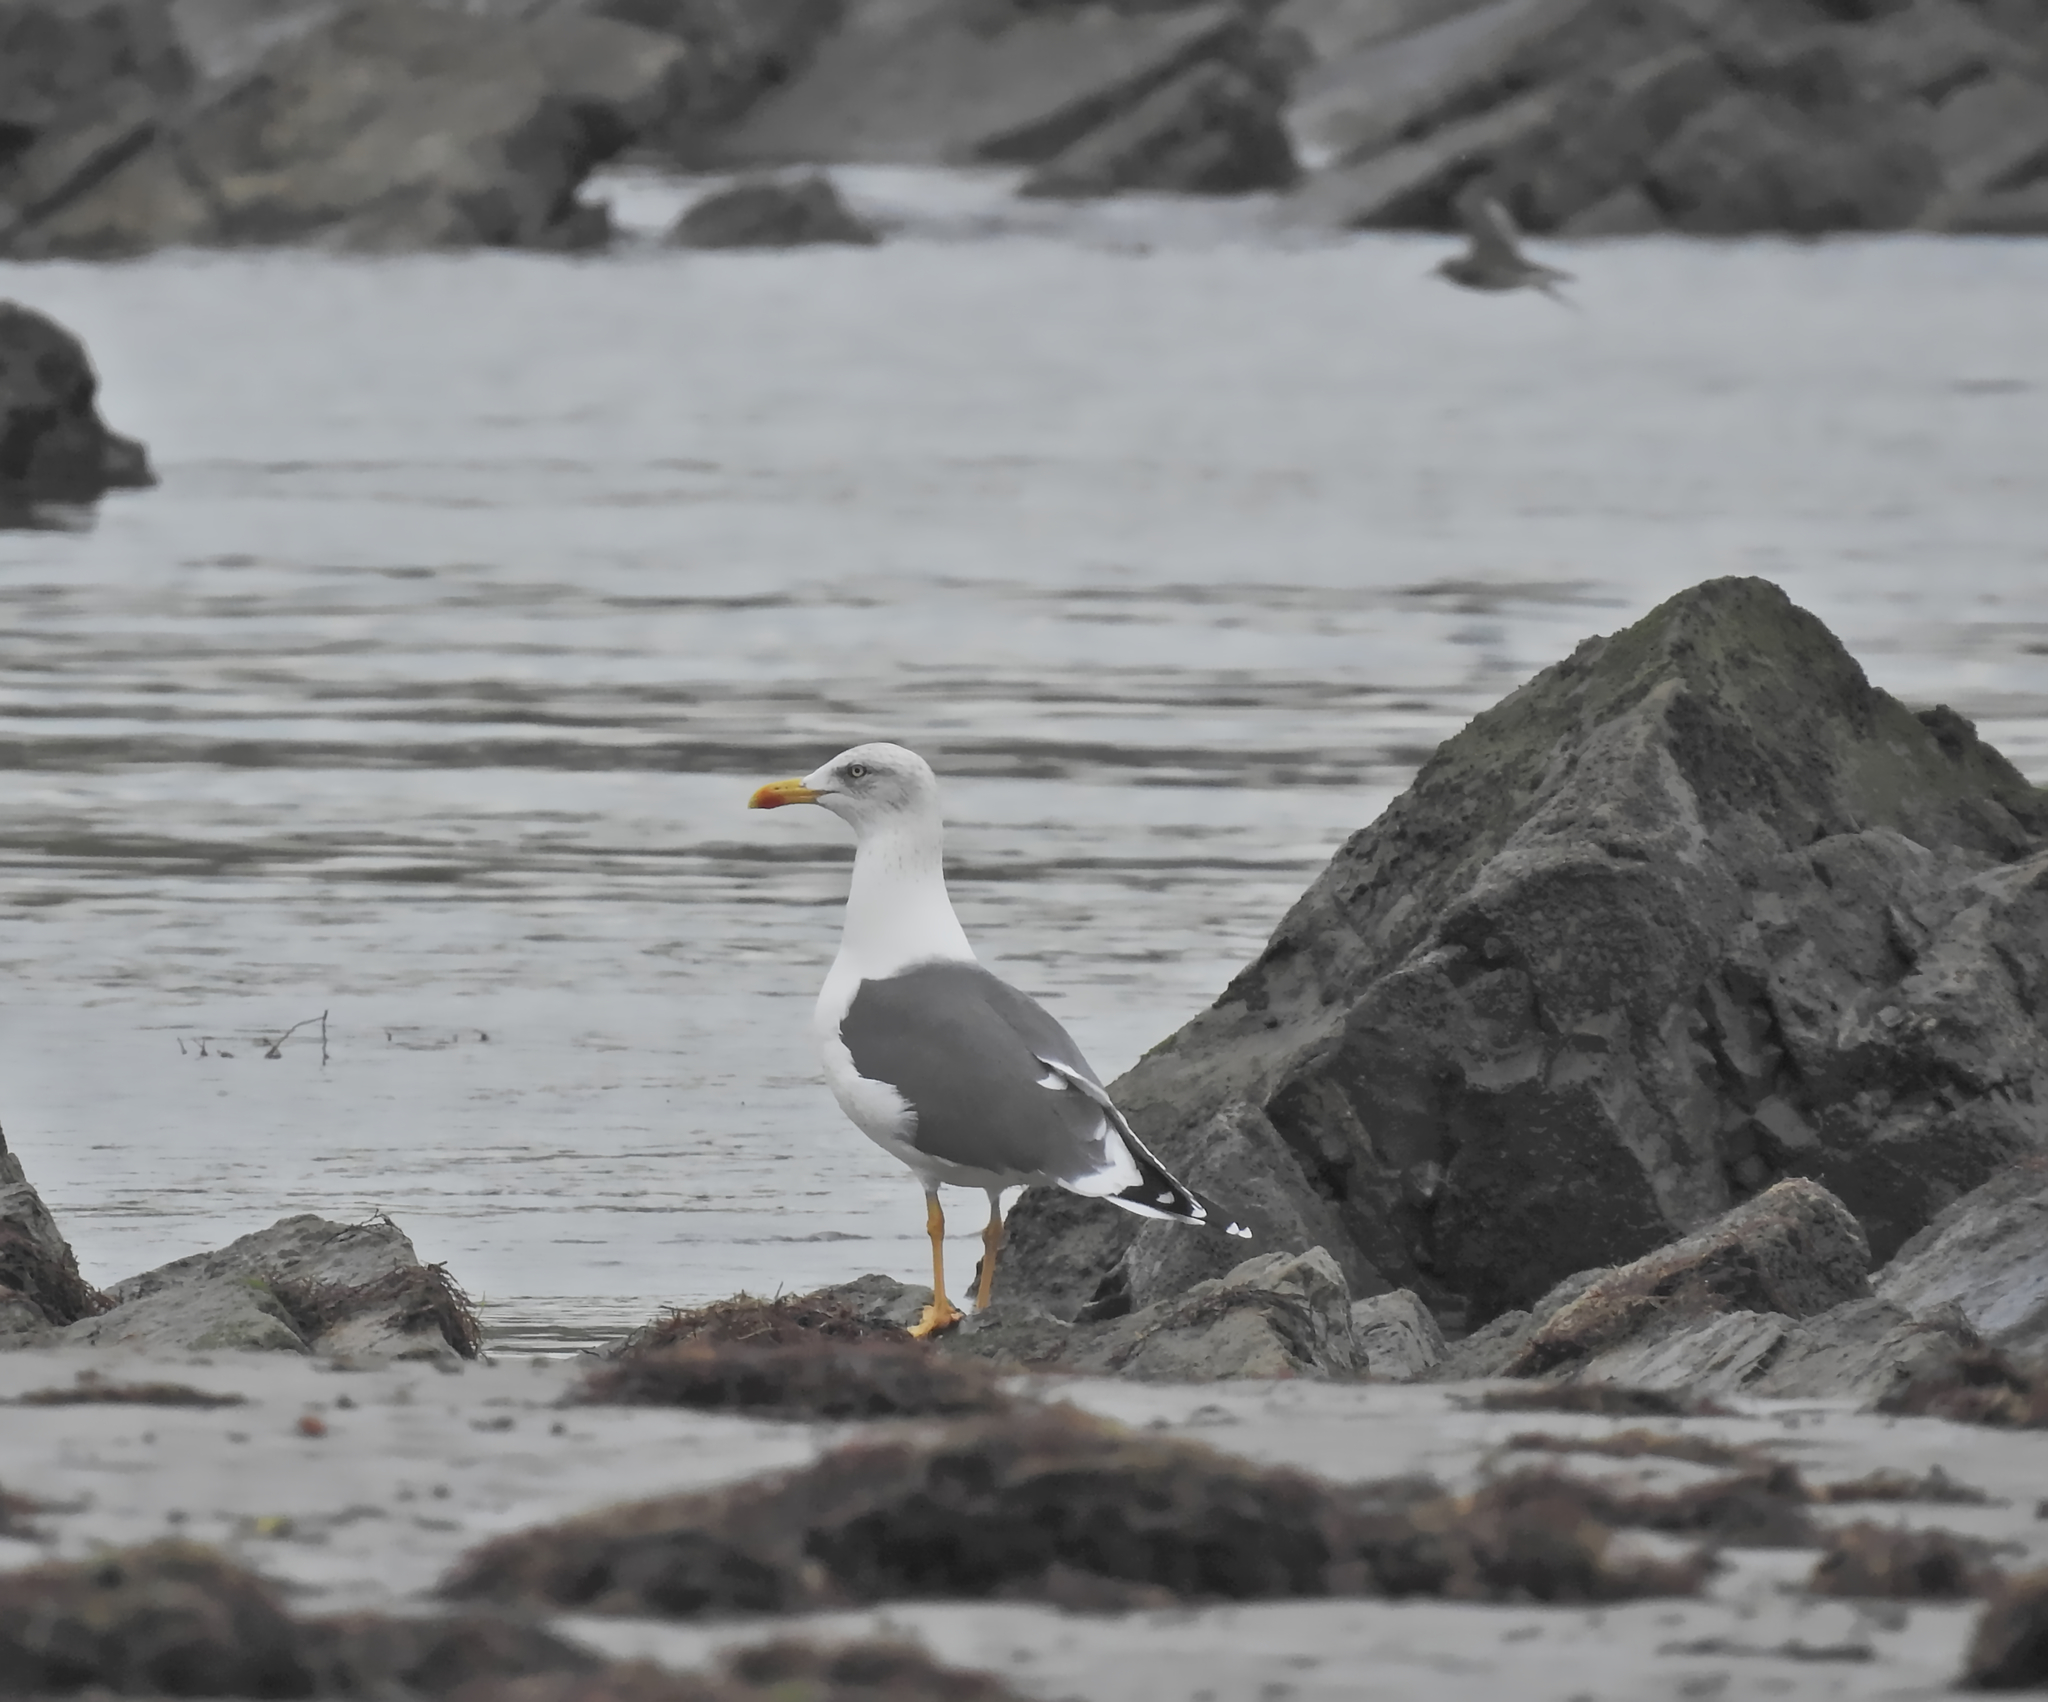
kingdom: Animalia
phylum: Chordata
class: Aves
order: Charadriiformes
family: Laridae
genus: Larus
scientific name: Larus fuscus
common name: Lesser black-backed gull
